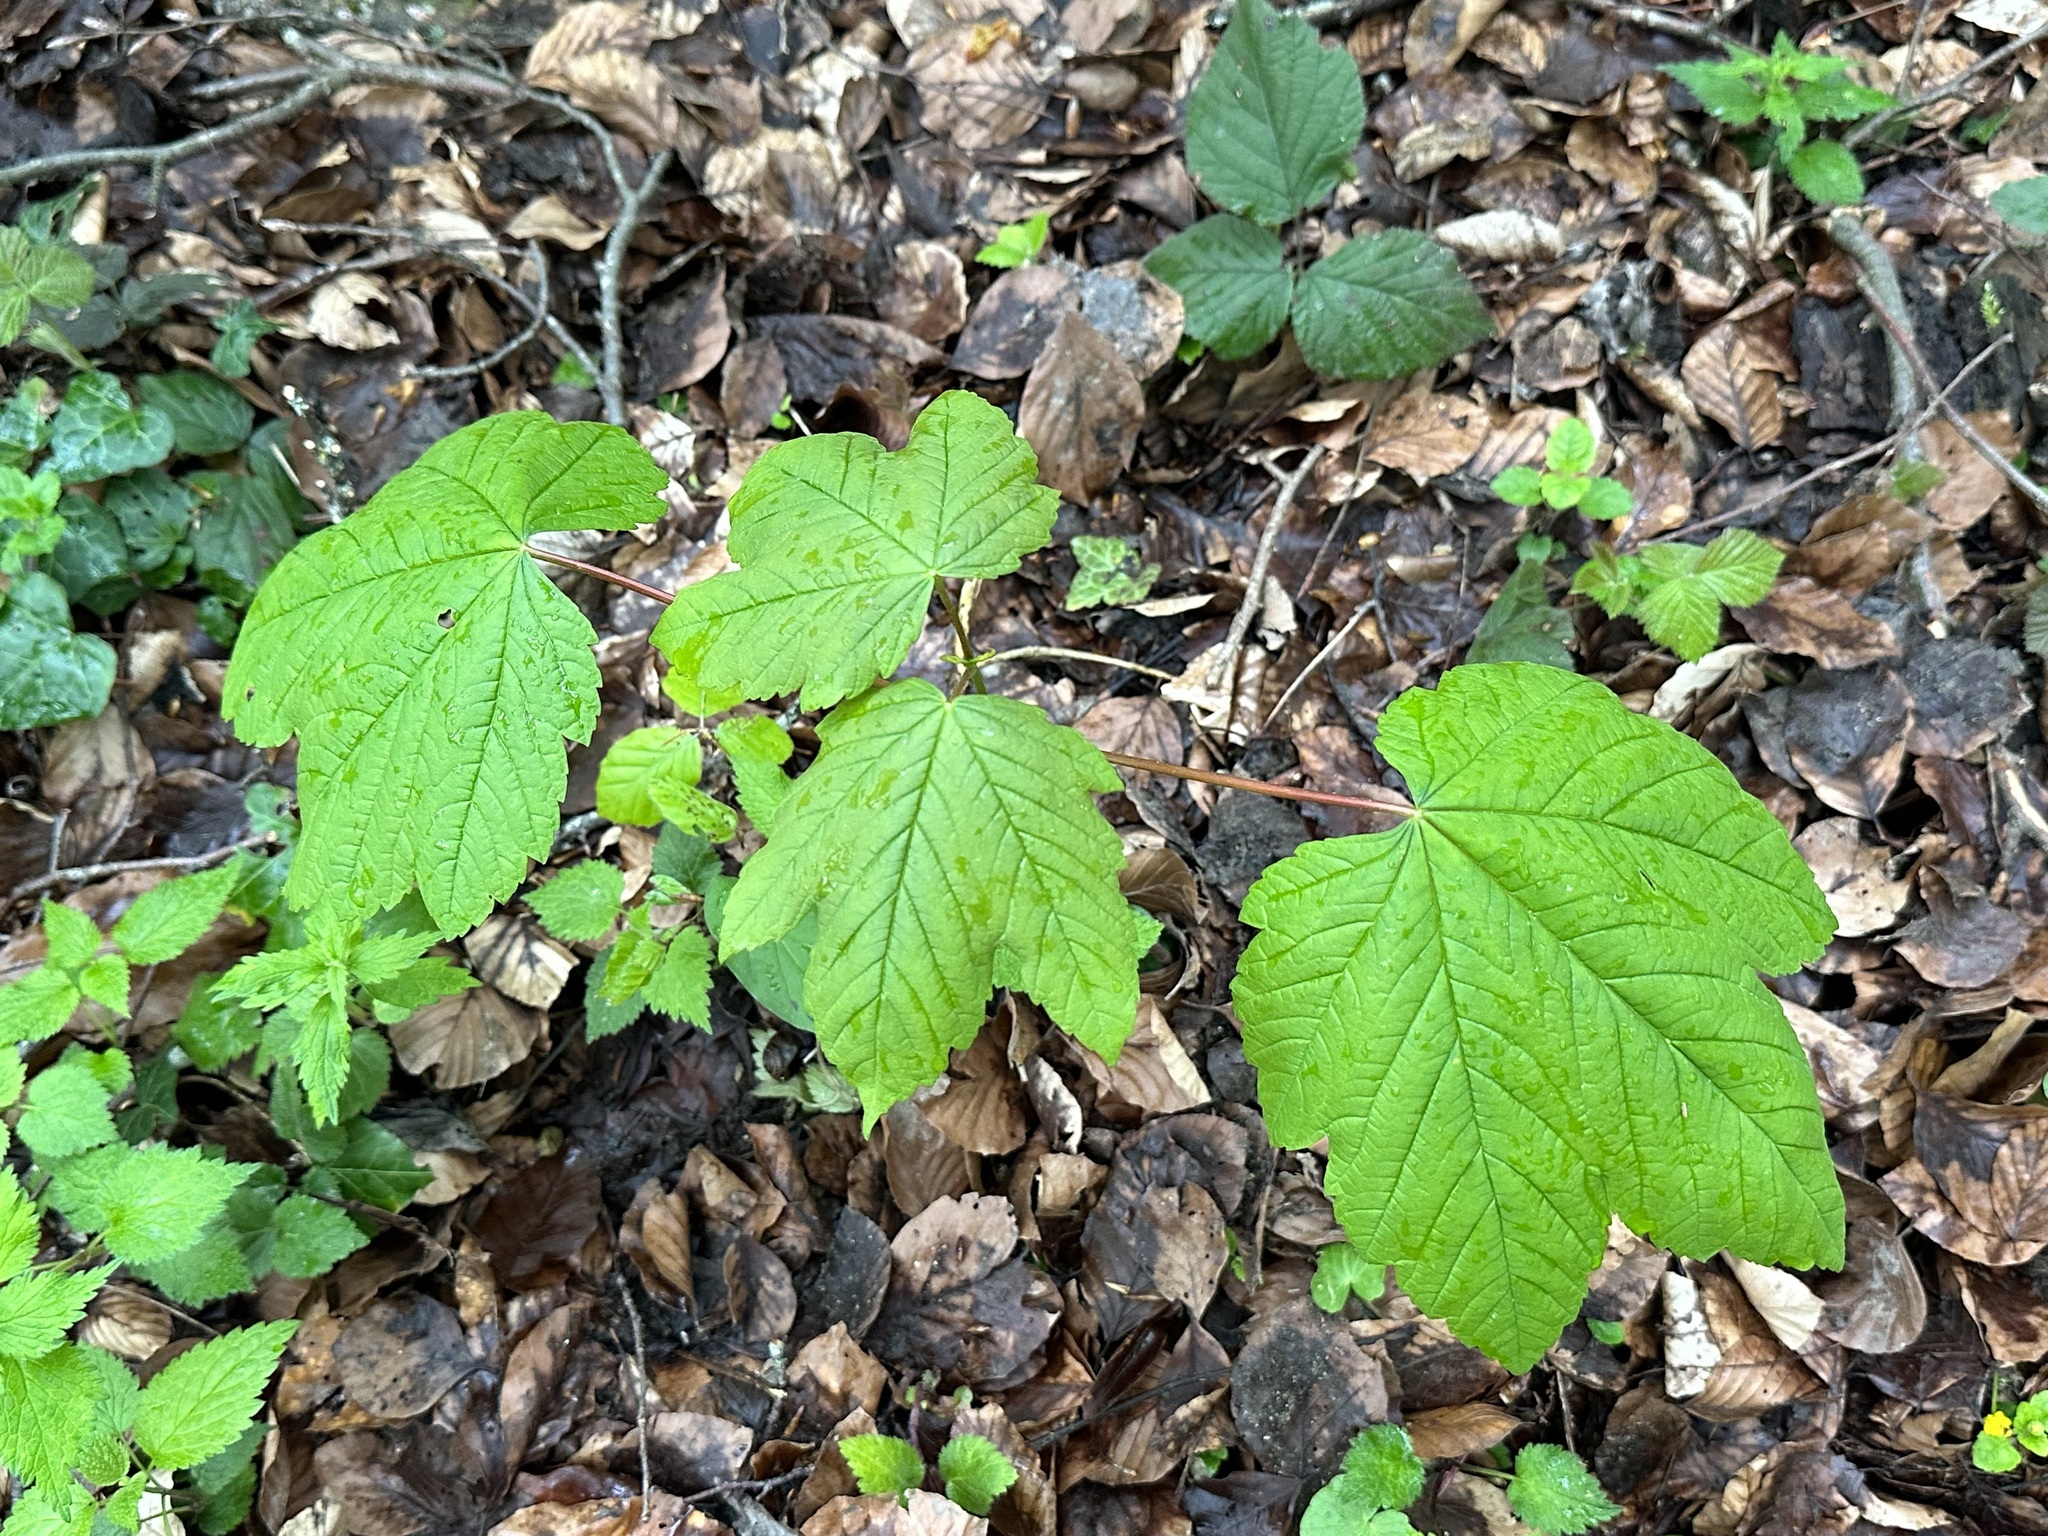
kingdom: Plantae
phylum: Tracheophyta
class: Magnoliopsida
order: Sapindales
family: Sapindaceae
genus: Acer
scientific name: Acer pseudoplatanus
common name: Sycamore
